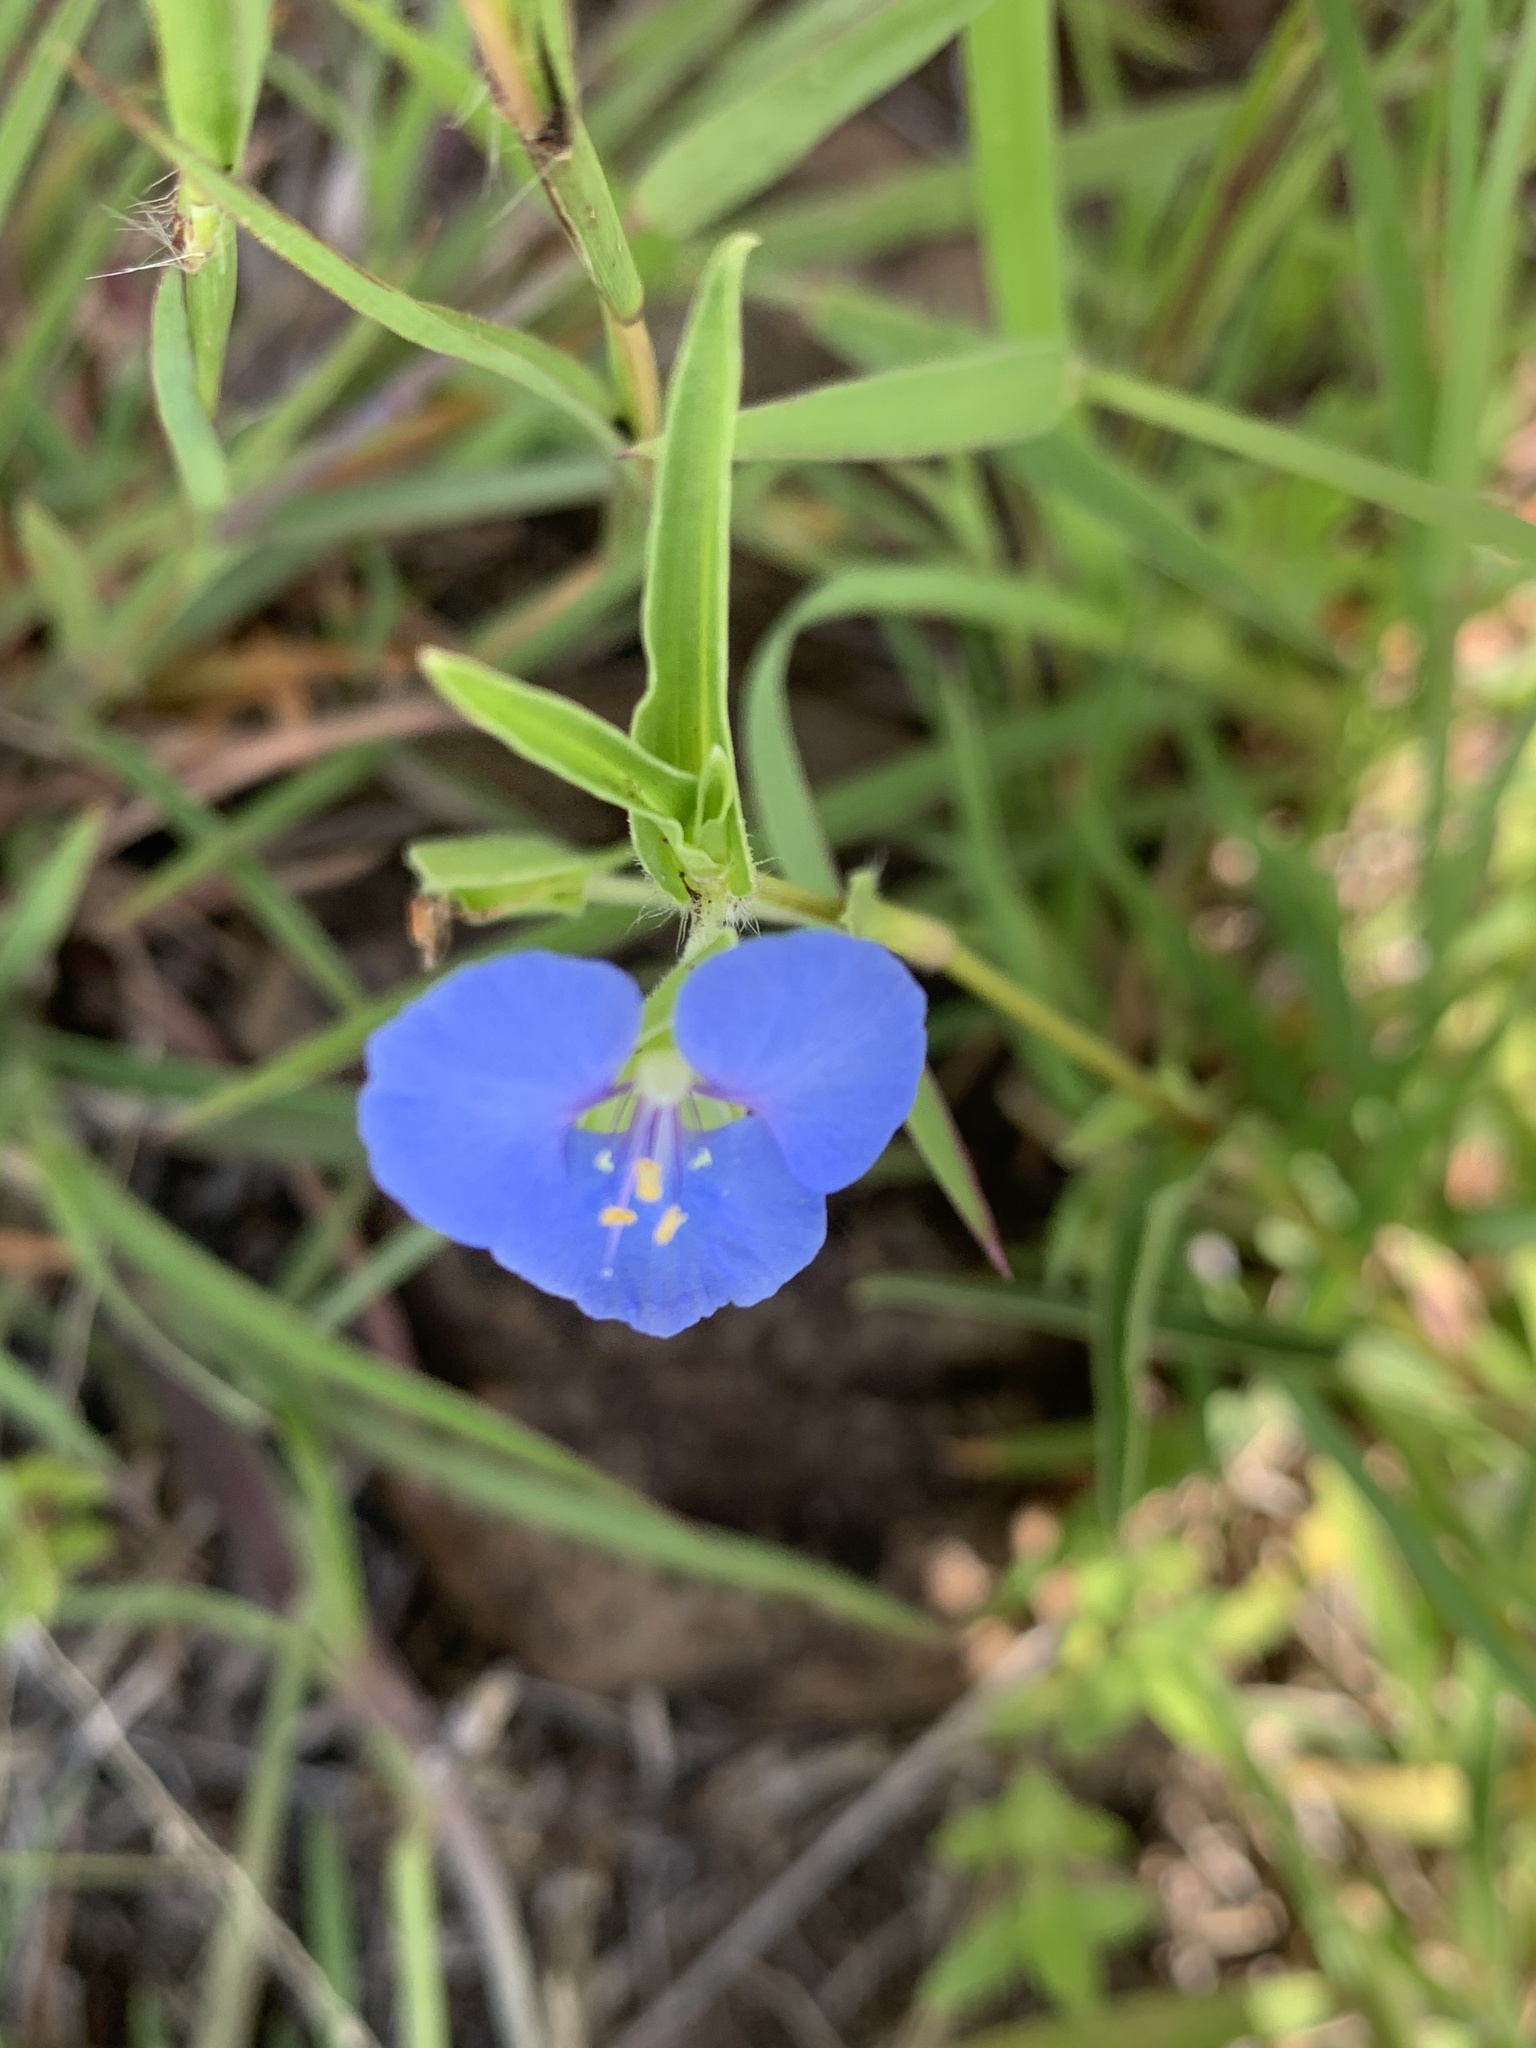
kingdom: Plantae
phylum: Tracheophyta
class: Liliopsida
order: Commelinales
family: Commelinaceae
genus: Commelina
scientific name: Commelina cyanea
